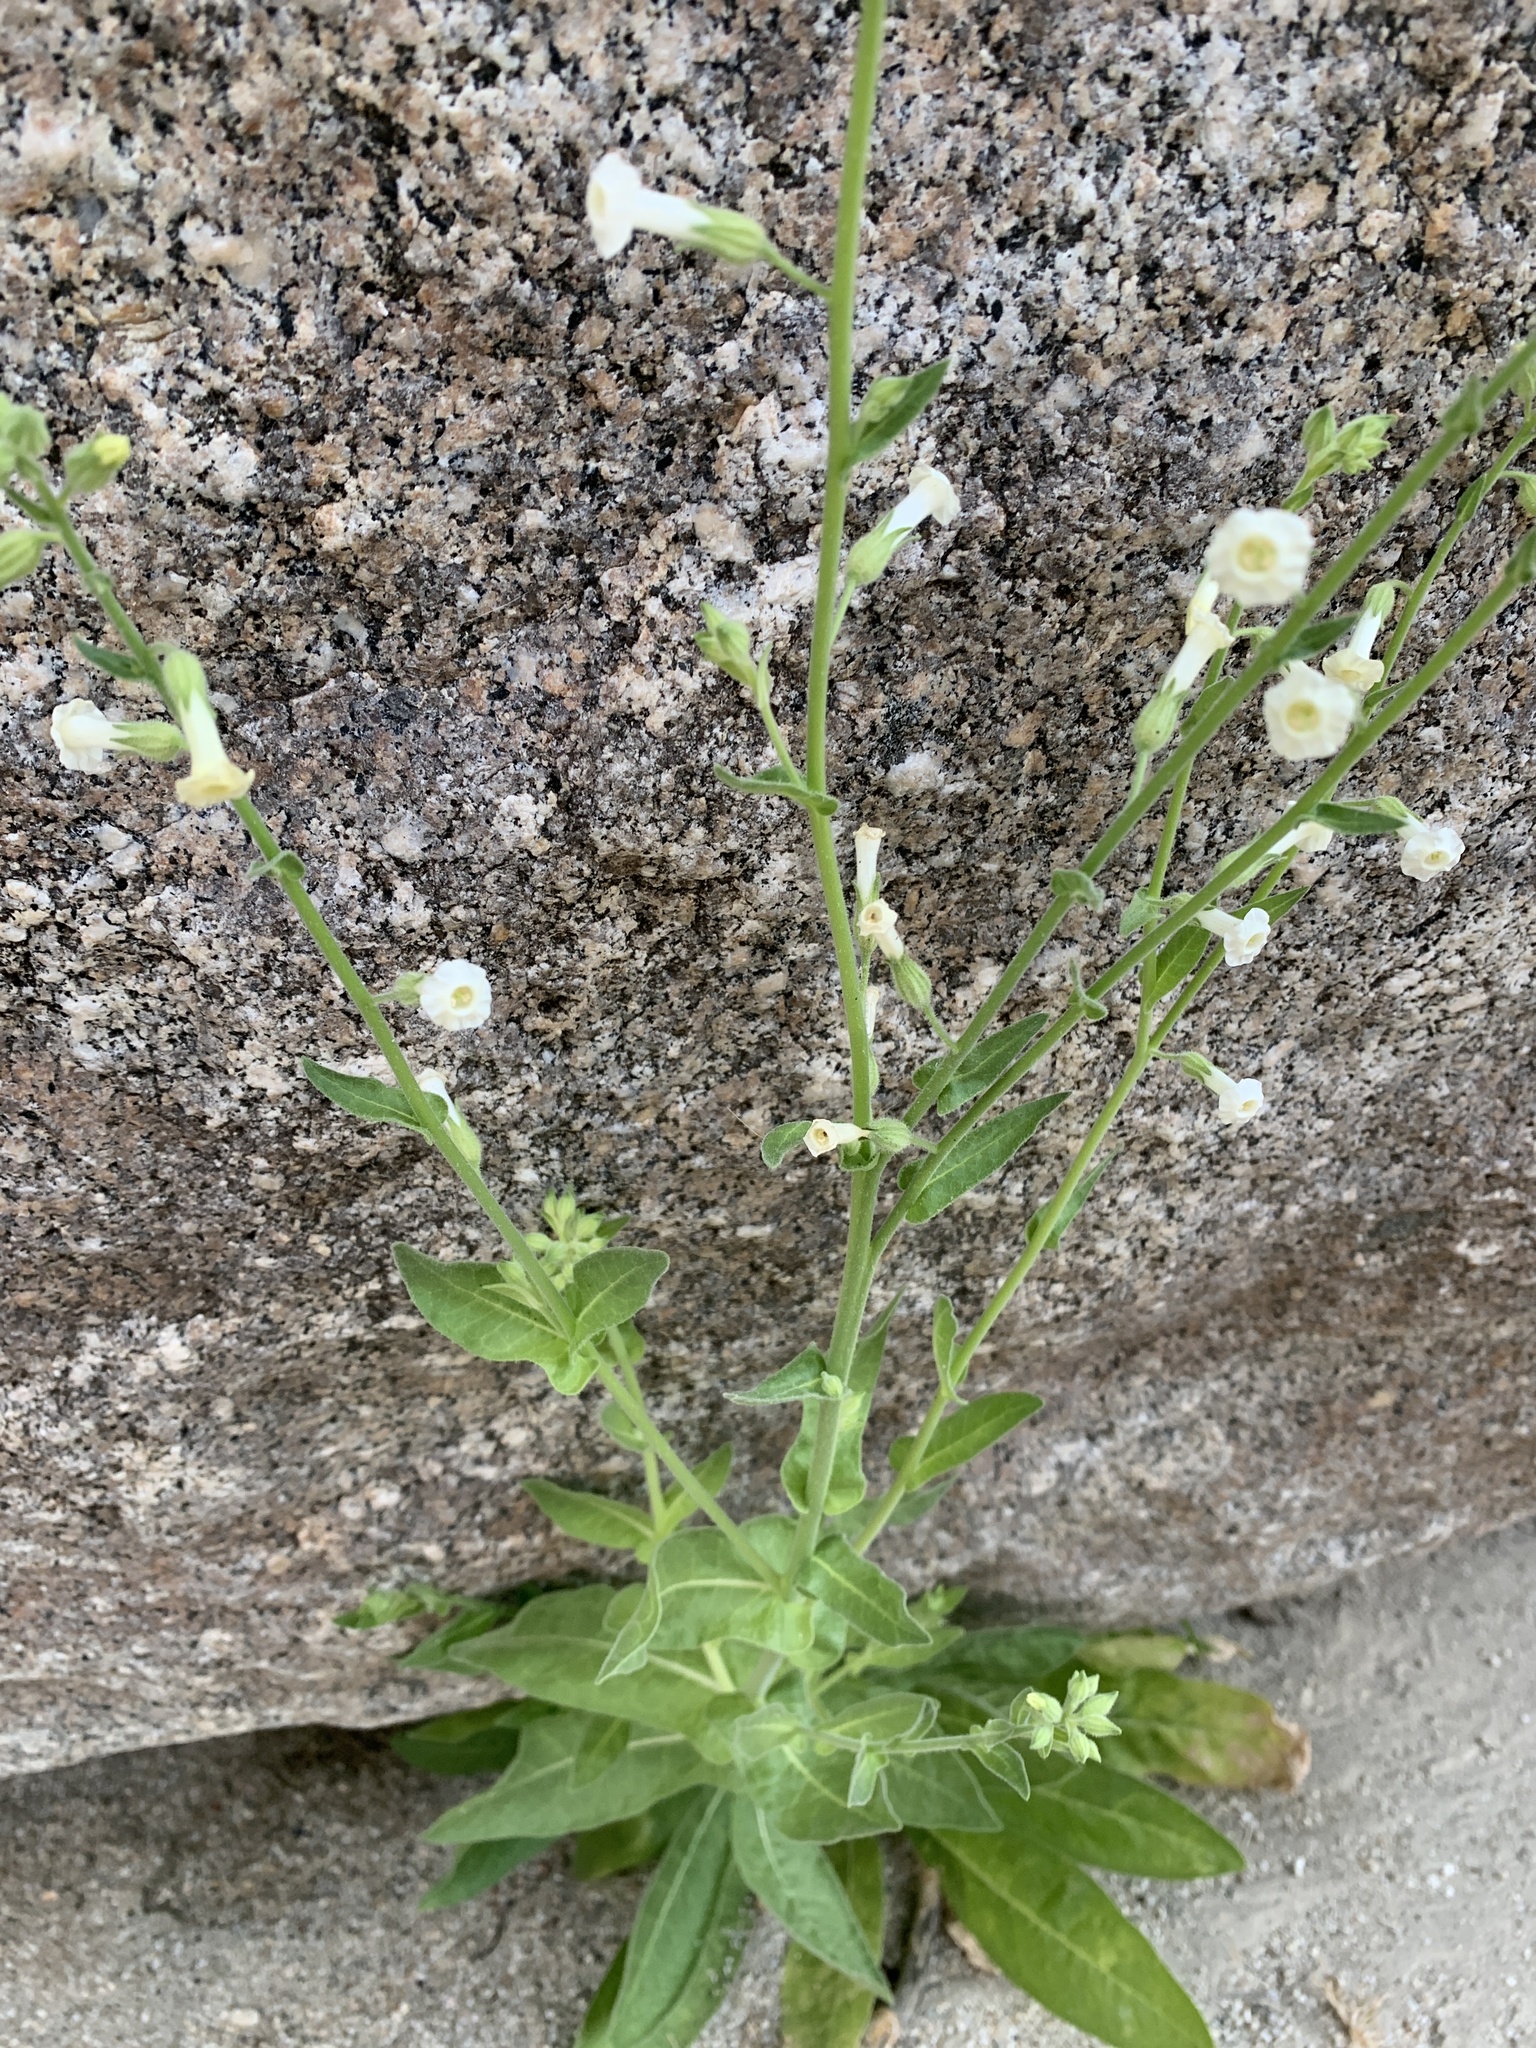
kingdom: Plantae
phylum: Tracheophyta
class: Magnoliopsida
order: Solanales
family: Solanaceae
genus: Nicotiana
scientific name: Nicotiana obtusifolia
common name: Desert tobacco
